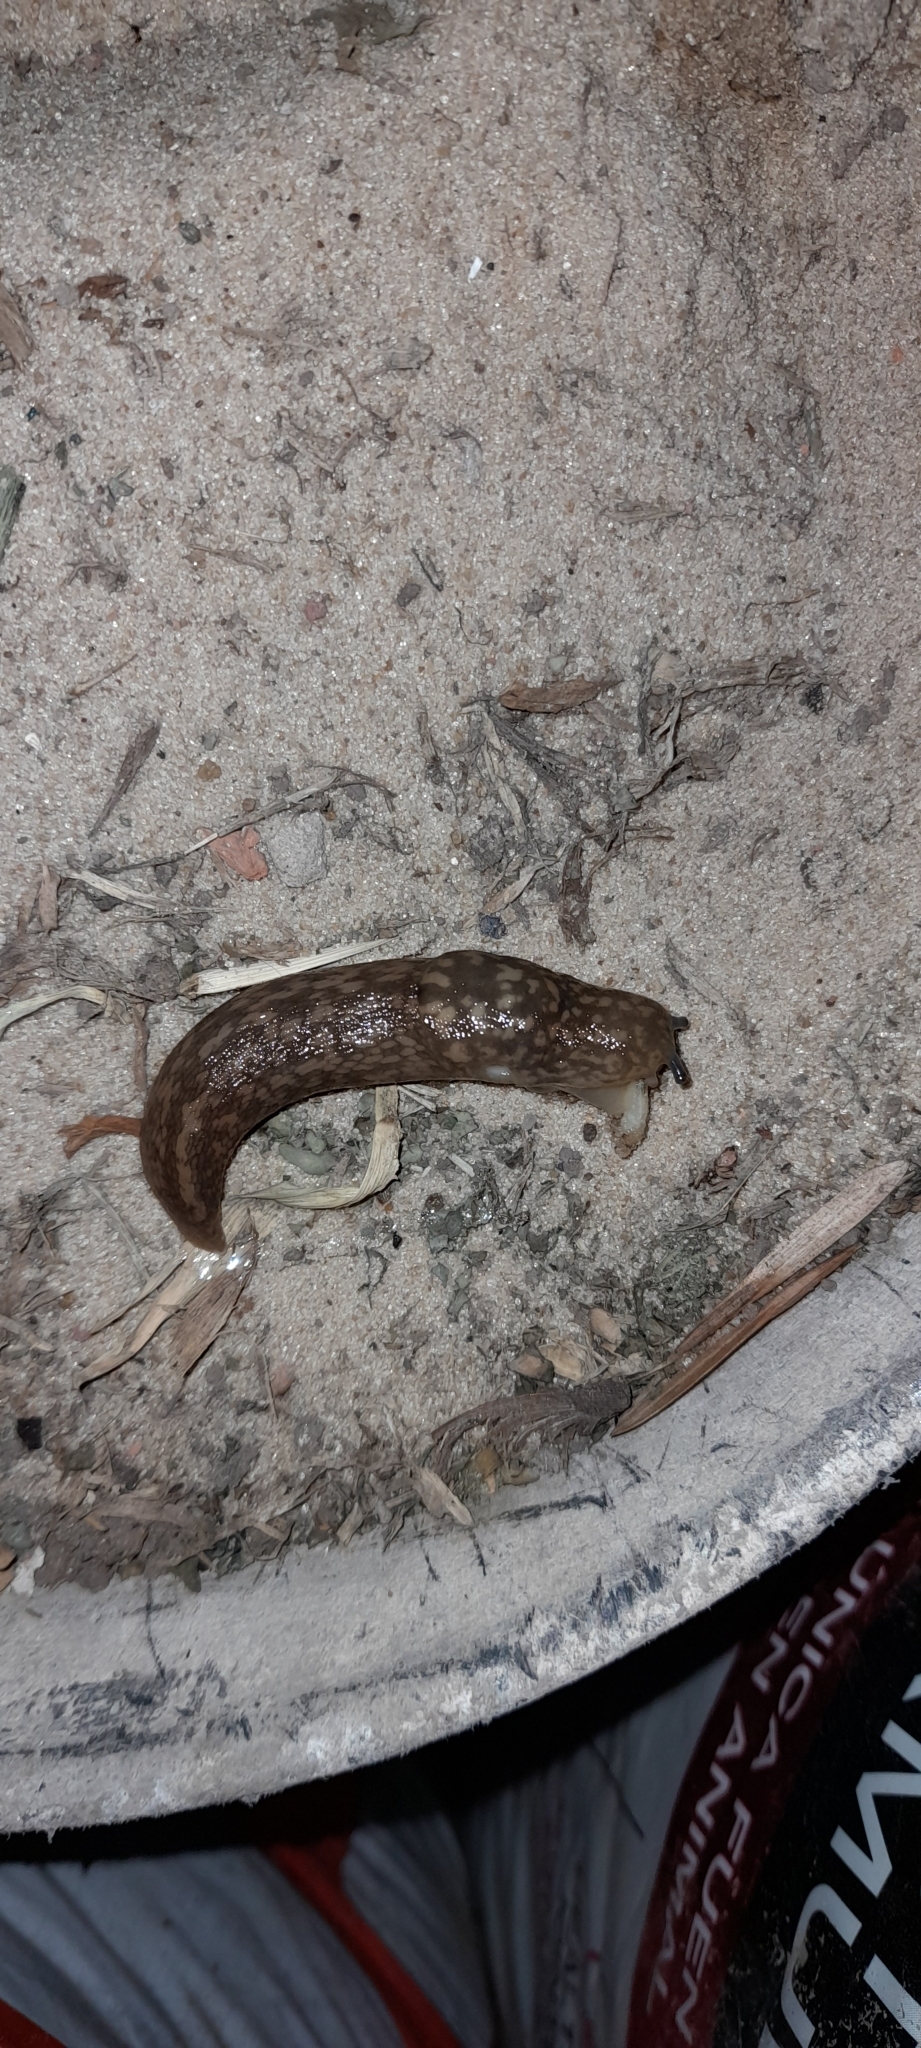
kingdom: Animalia
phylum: Mollusca
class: Gastropoda
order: Stylommatophora
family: Limacidae
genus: Limacus
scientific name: Limacus flavus
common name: Yellow gardenslug
